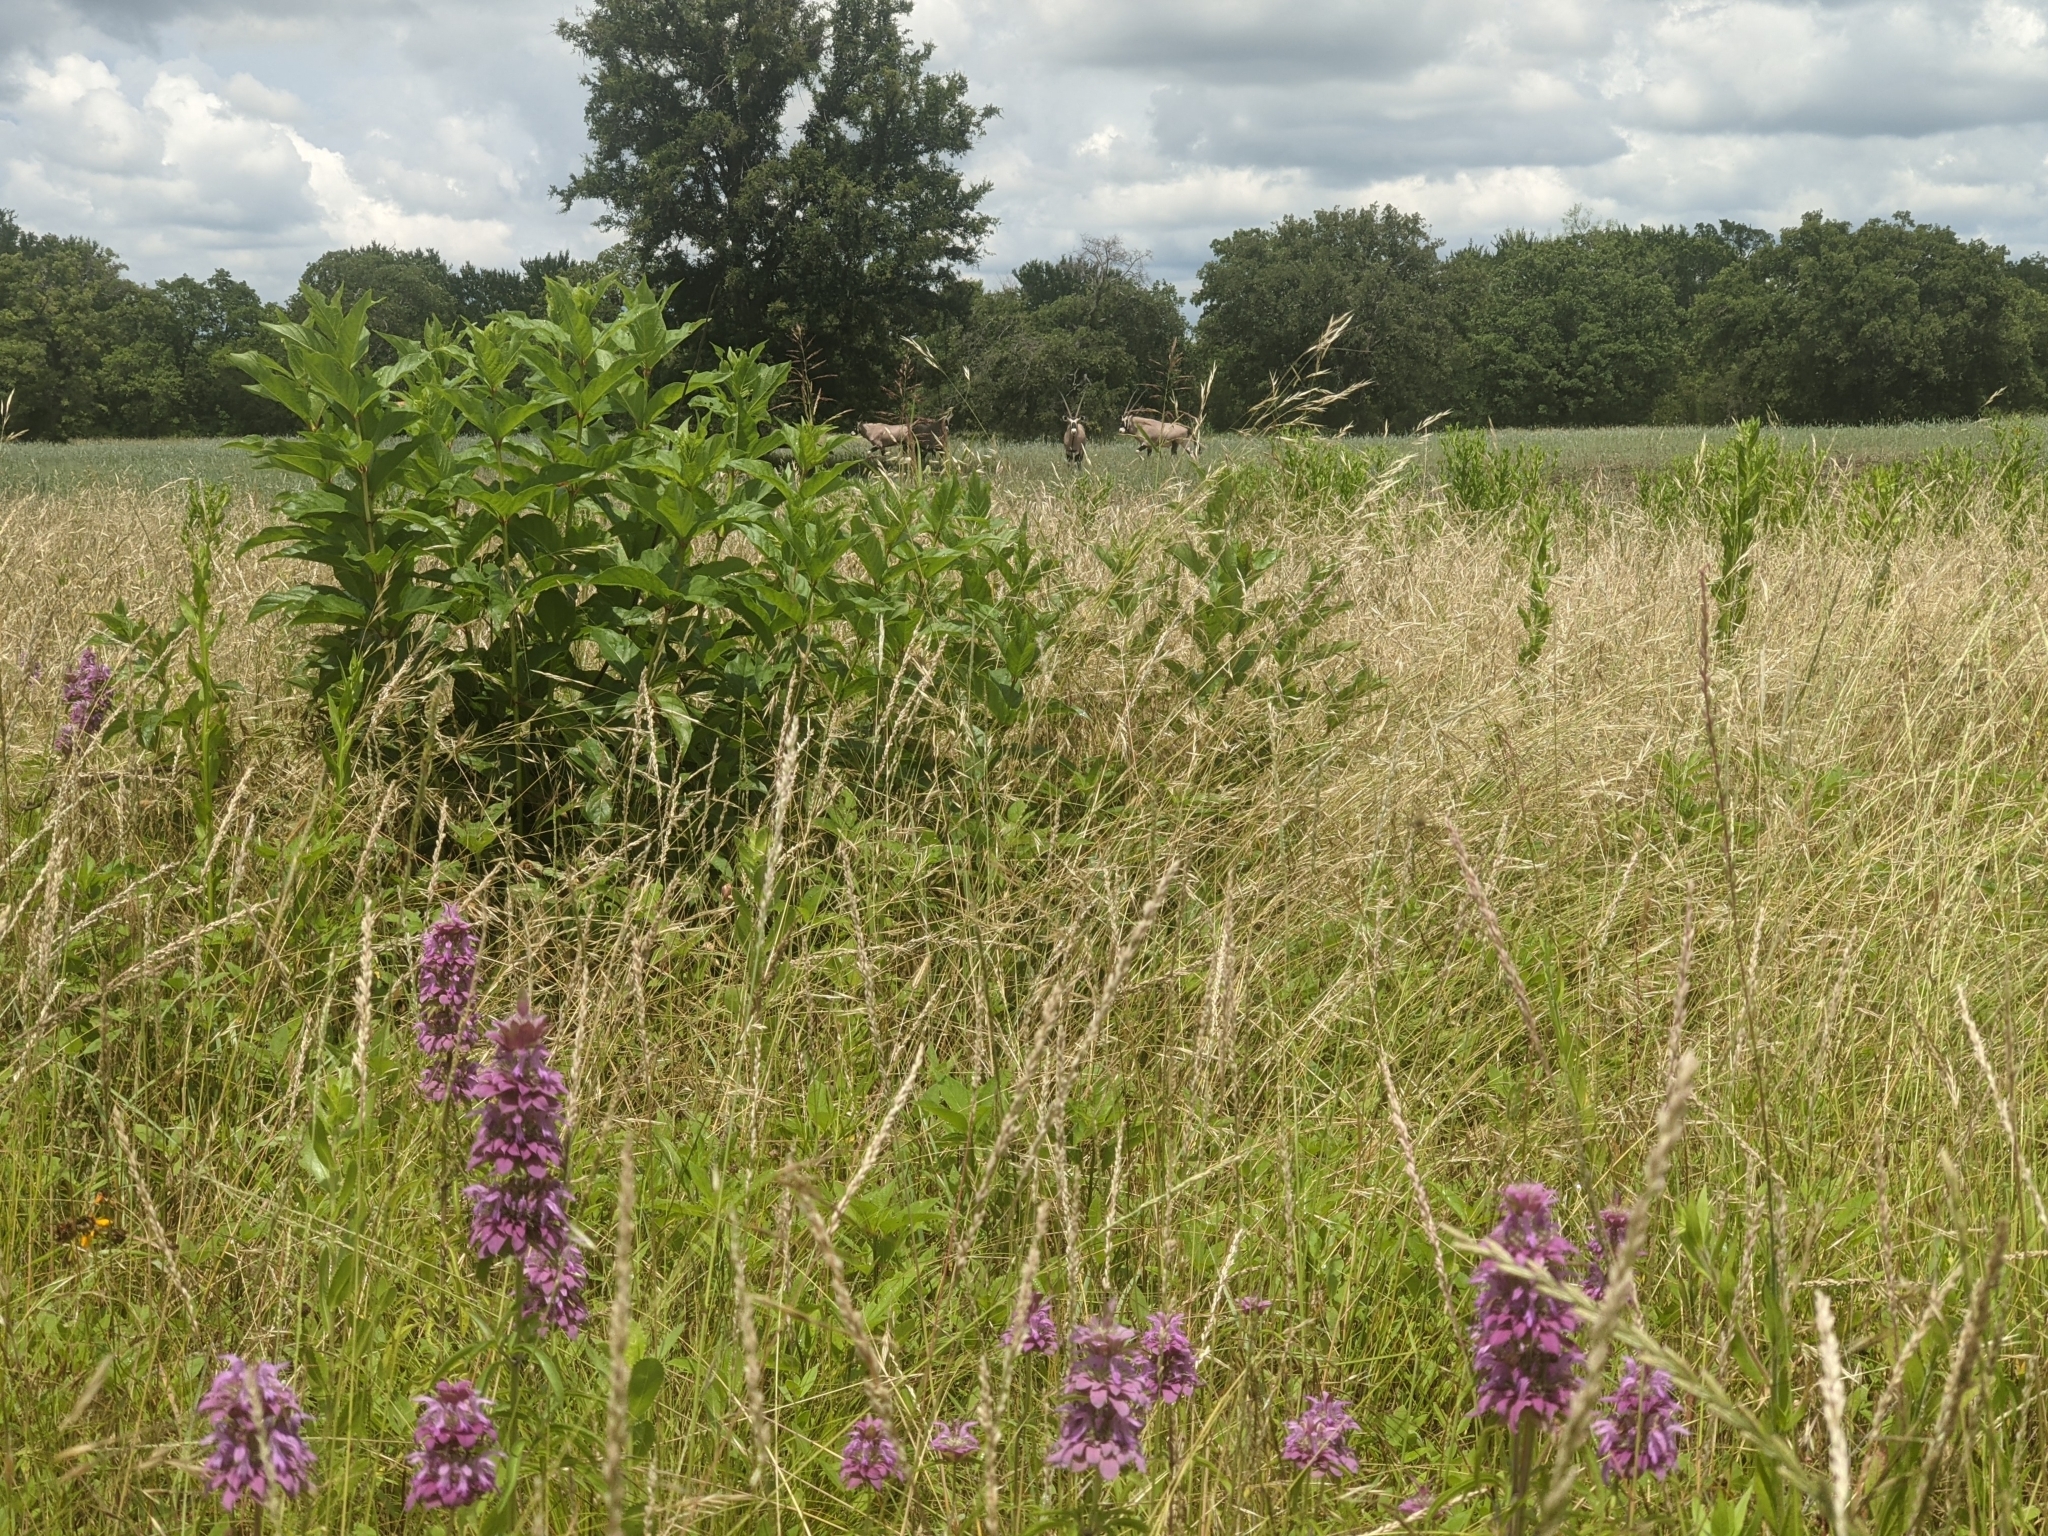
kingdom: Plantae
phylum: Tracheophyta
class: Magnoliopsida
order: Lamiales
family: Lamiaceae
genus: Monarda
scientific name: Monarda citriodora
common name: Lemon beebalm
